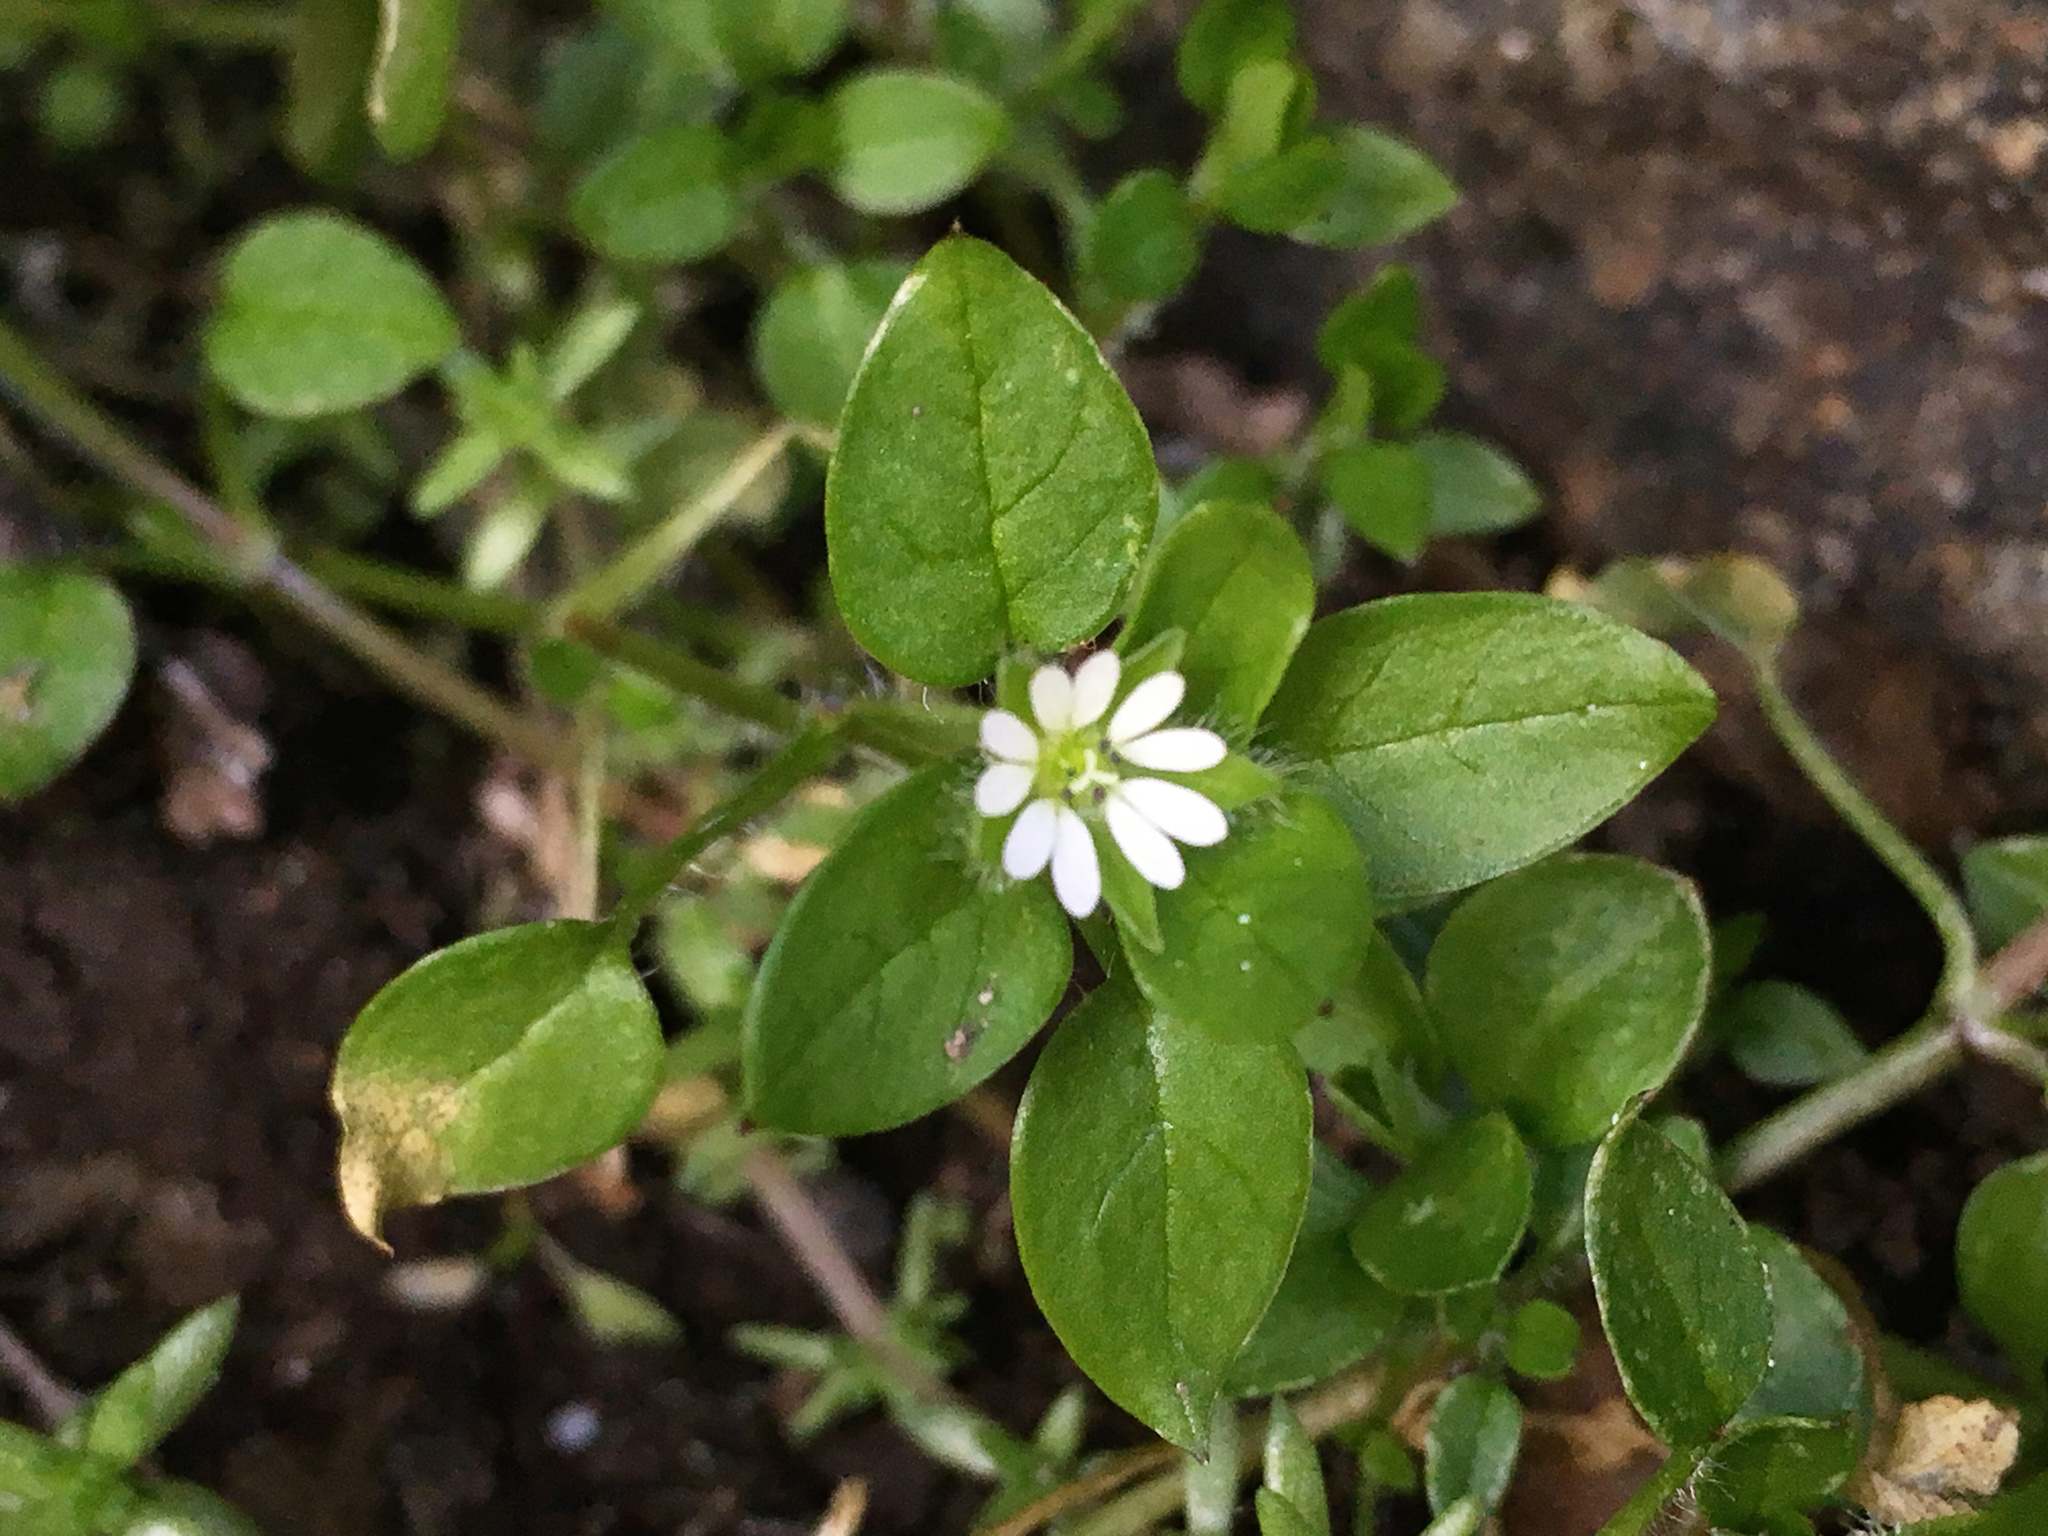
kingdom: Plantae
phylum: Tracheophyta
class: Magnoliopsida
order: Caryophyllales
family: Caryophyllaceae
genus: Stellaria
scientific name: Stellaria media
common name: Common chickweed
